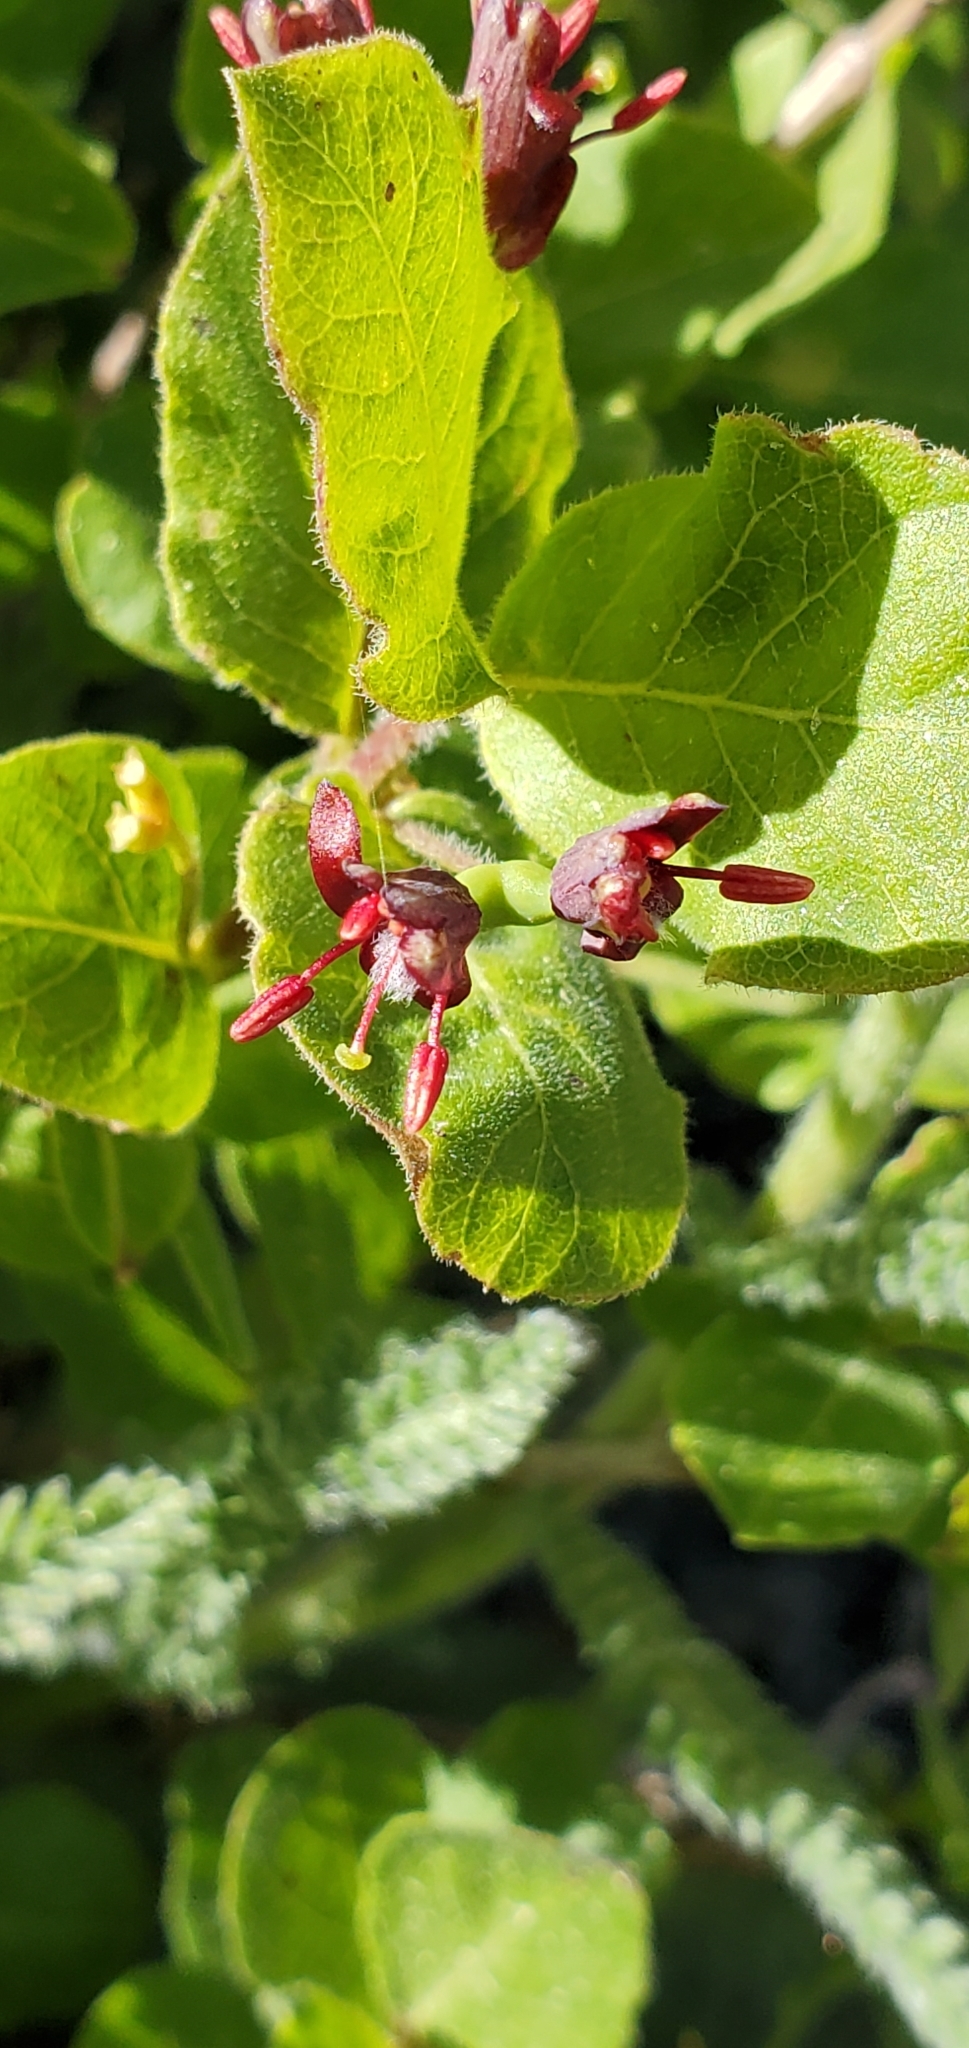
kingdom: Plantae
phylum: Tracheophyta
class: Magnoliopsida
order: Dipsacales
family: Caprifoliaceae
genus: Lonicera
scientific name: Lonicera conjugialis
